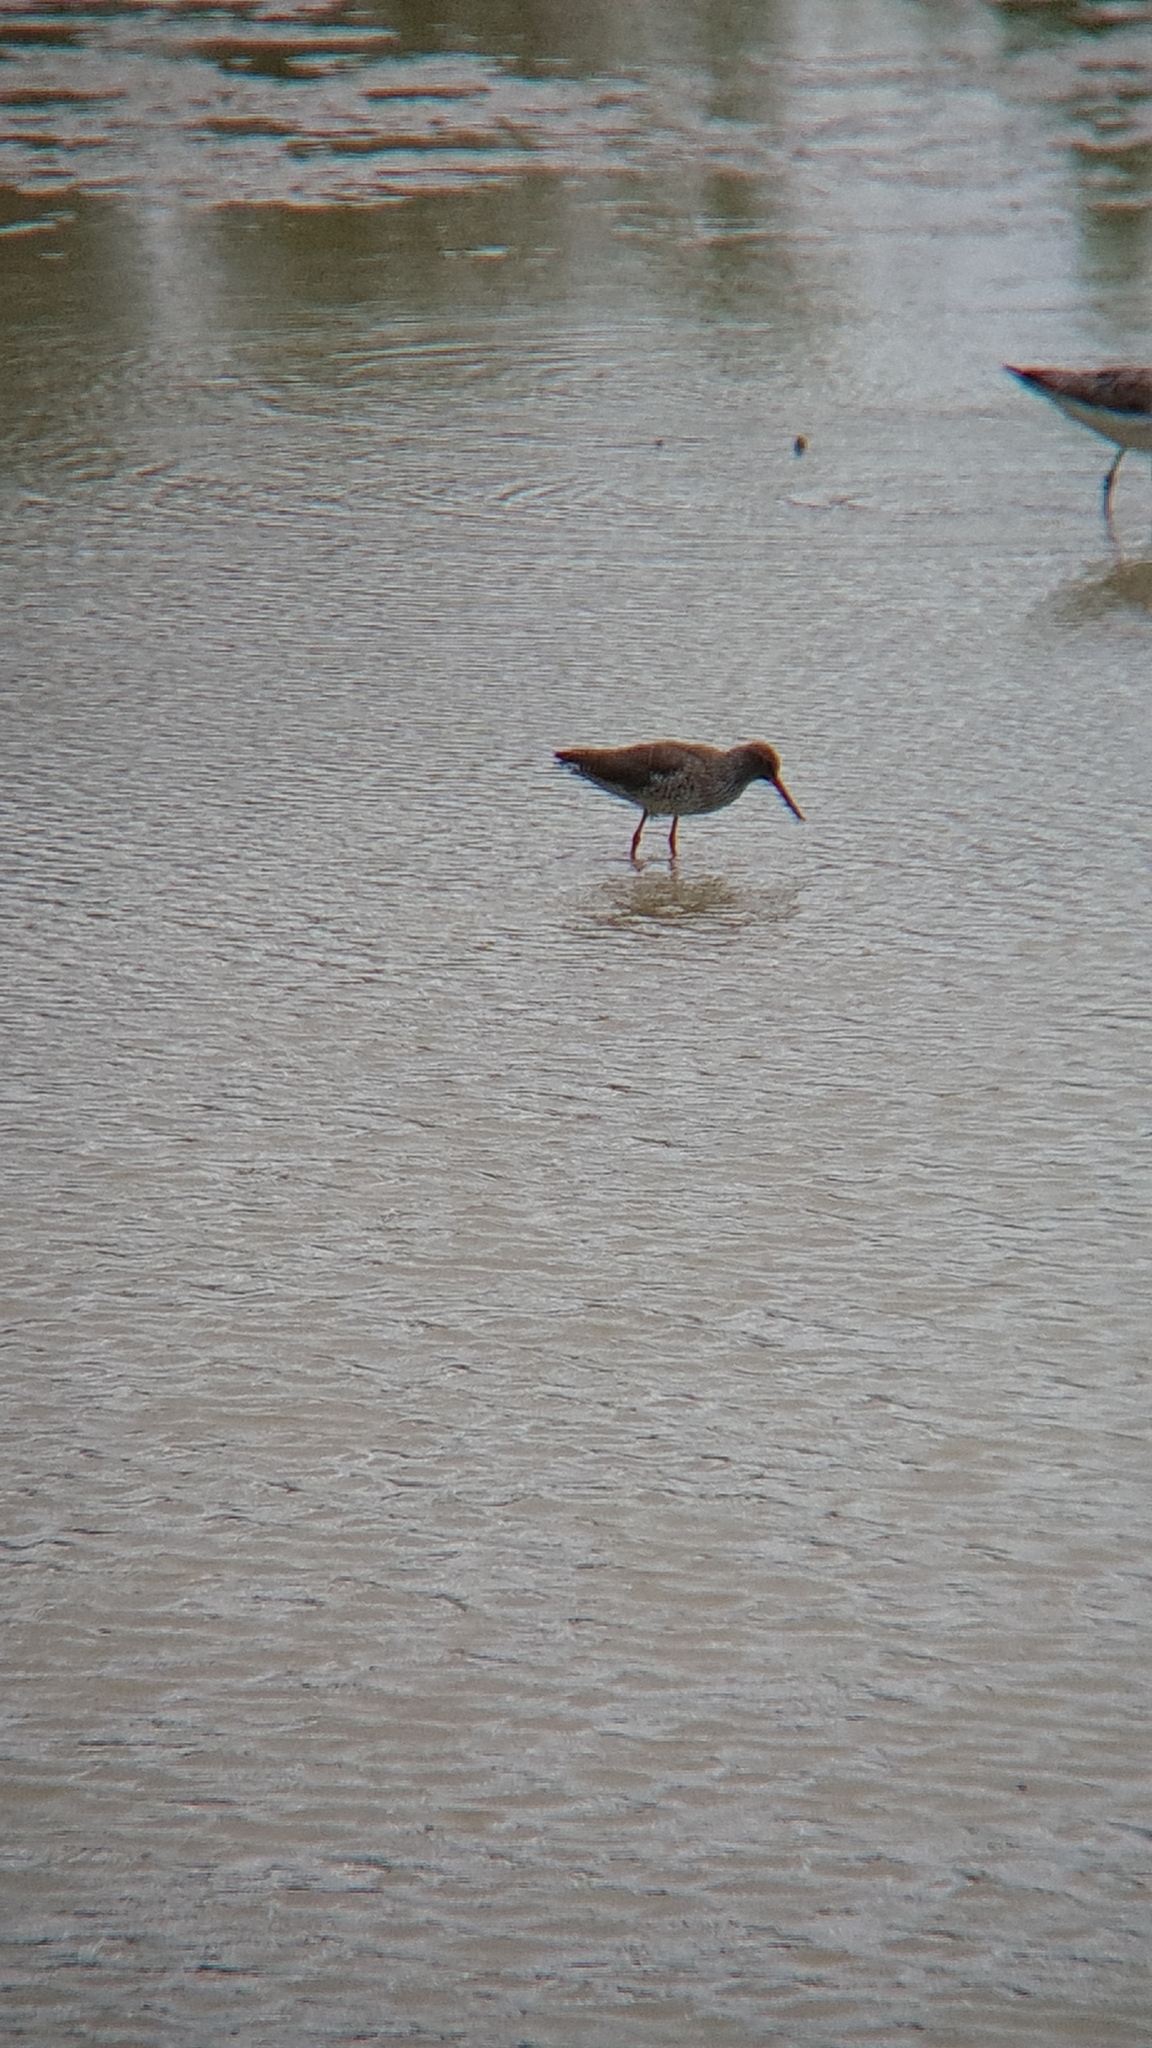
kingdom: Animalia
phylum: Chordata
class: Aves
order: Charadriiformes
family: Scolopacidae
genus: Tringa
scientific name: Tringa totanus
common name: Common redshank
